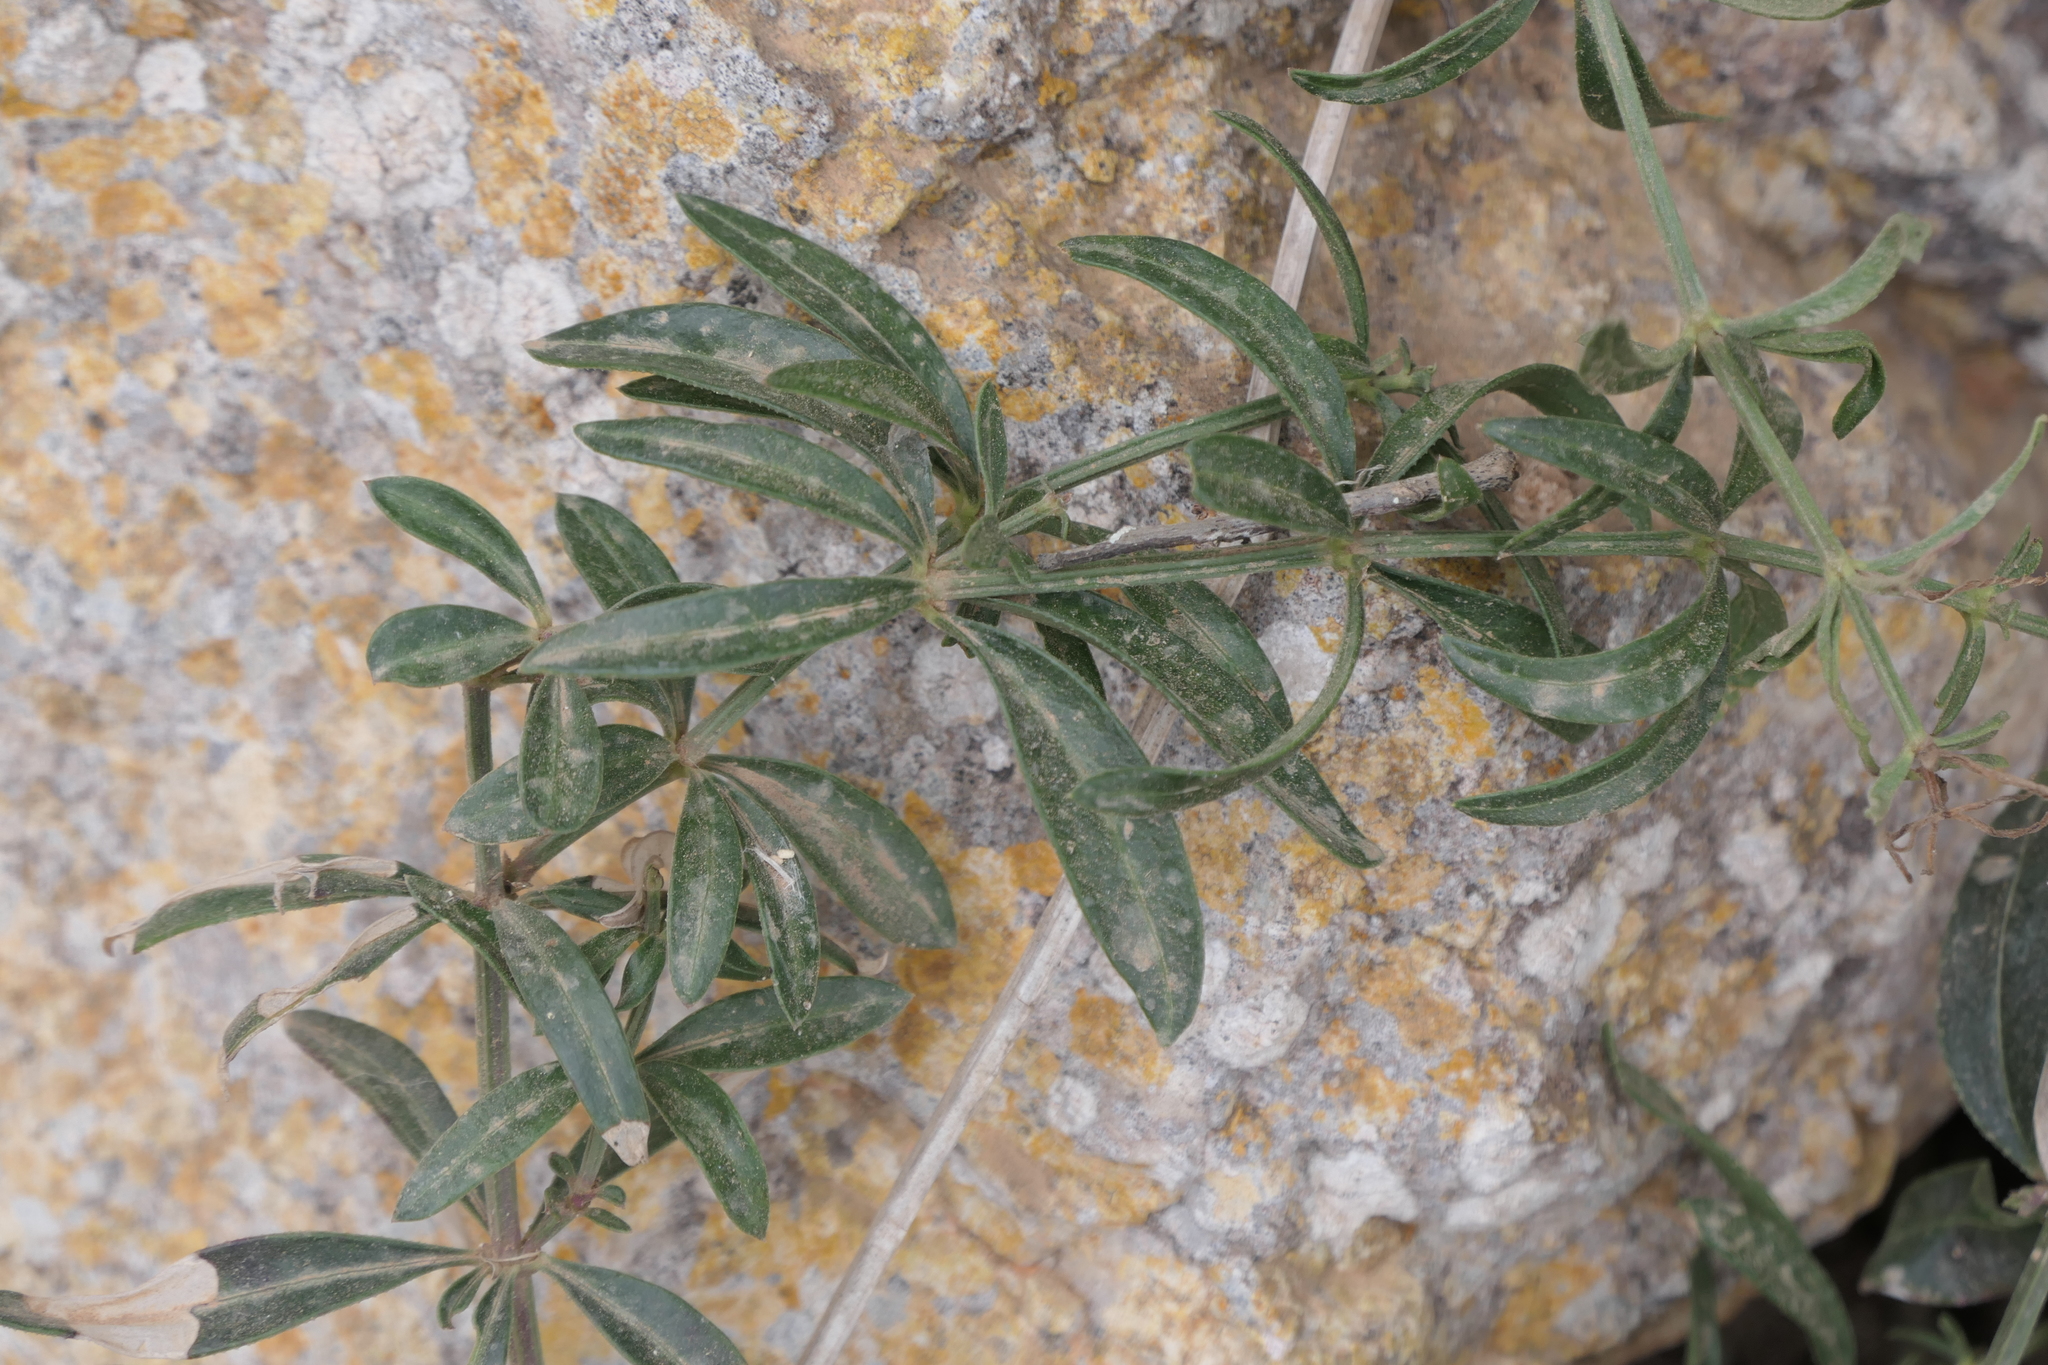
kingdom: Plantae
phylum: Tracheophyta
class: Magnoliopsida
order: Gentianales
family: Rubiaceae
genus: Rubia
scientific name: Rubia peregrina
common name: Wild madder
